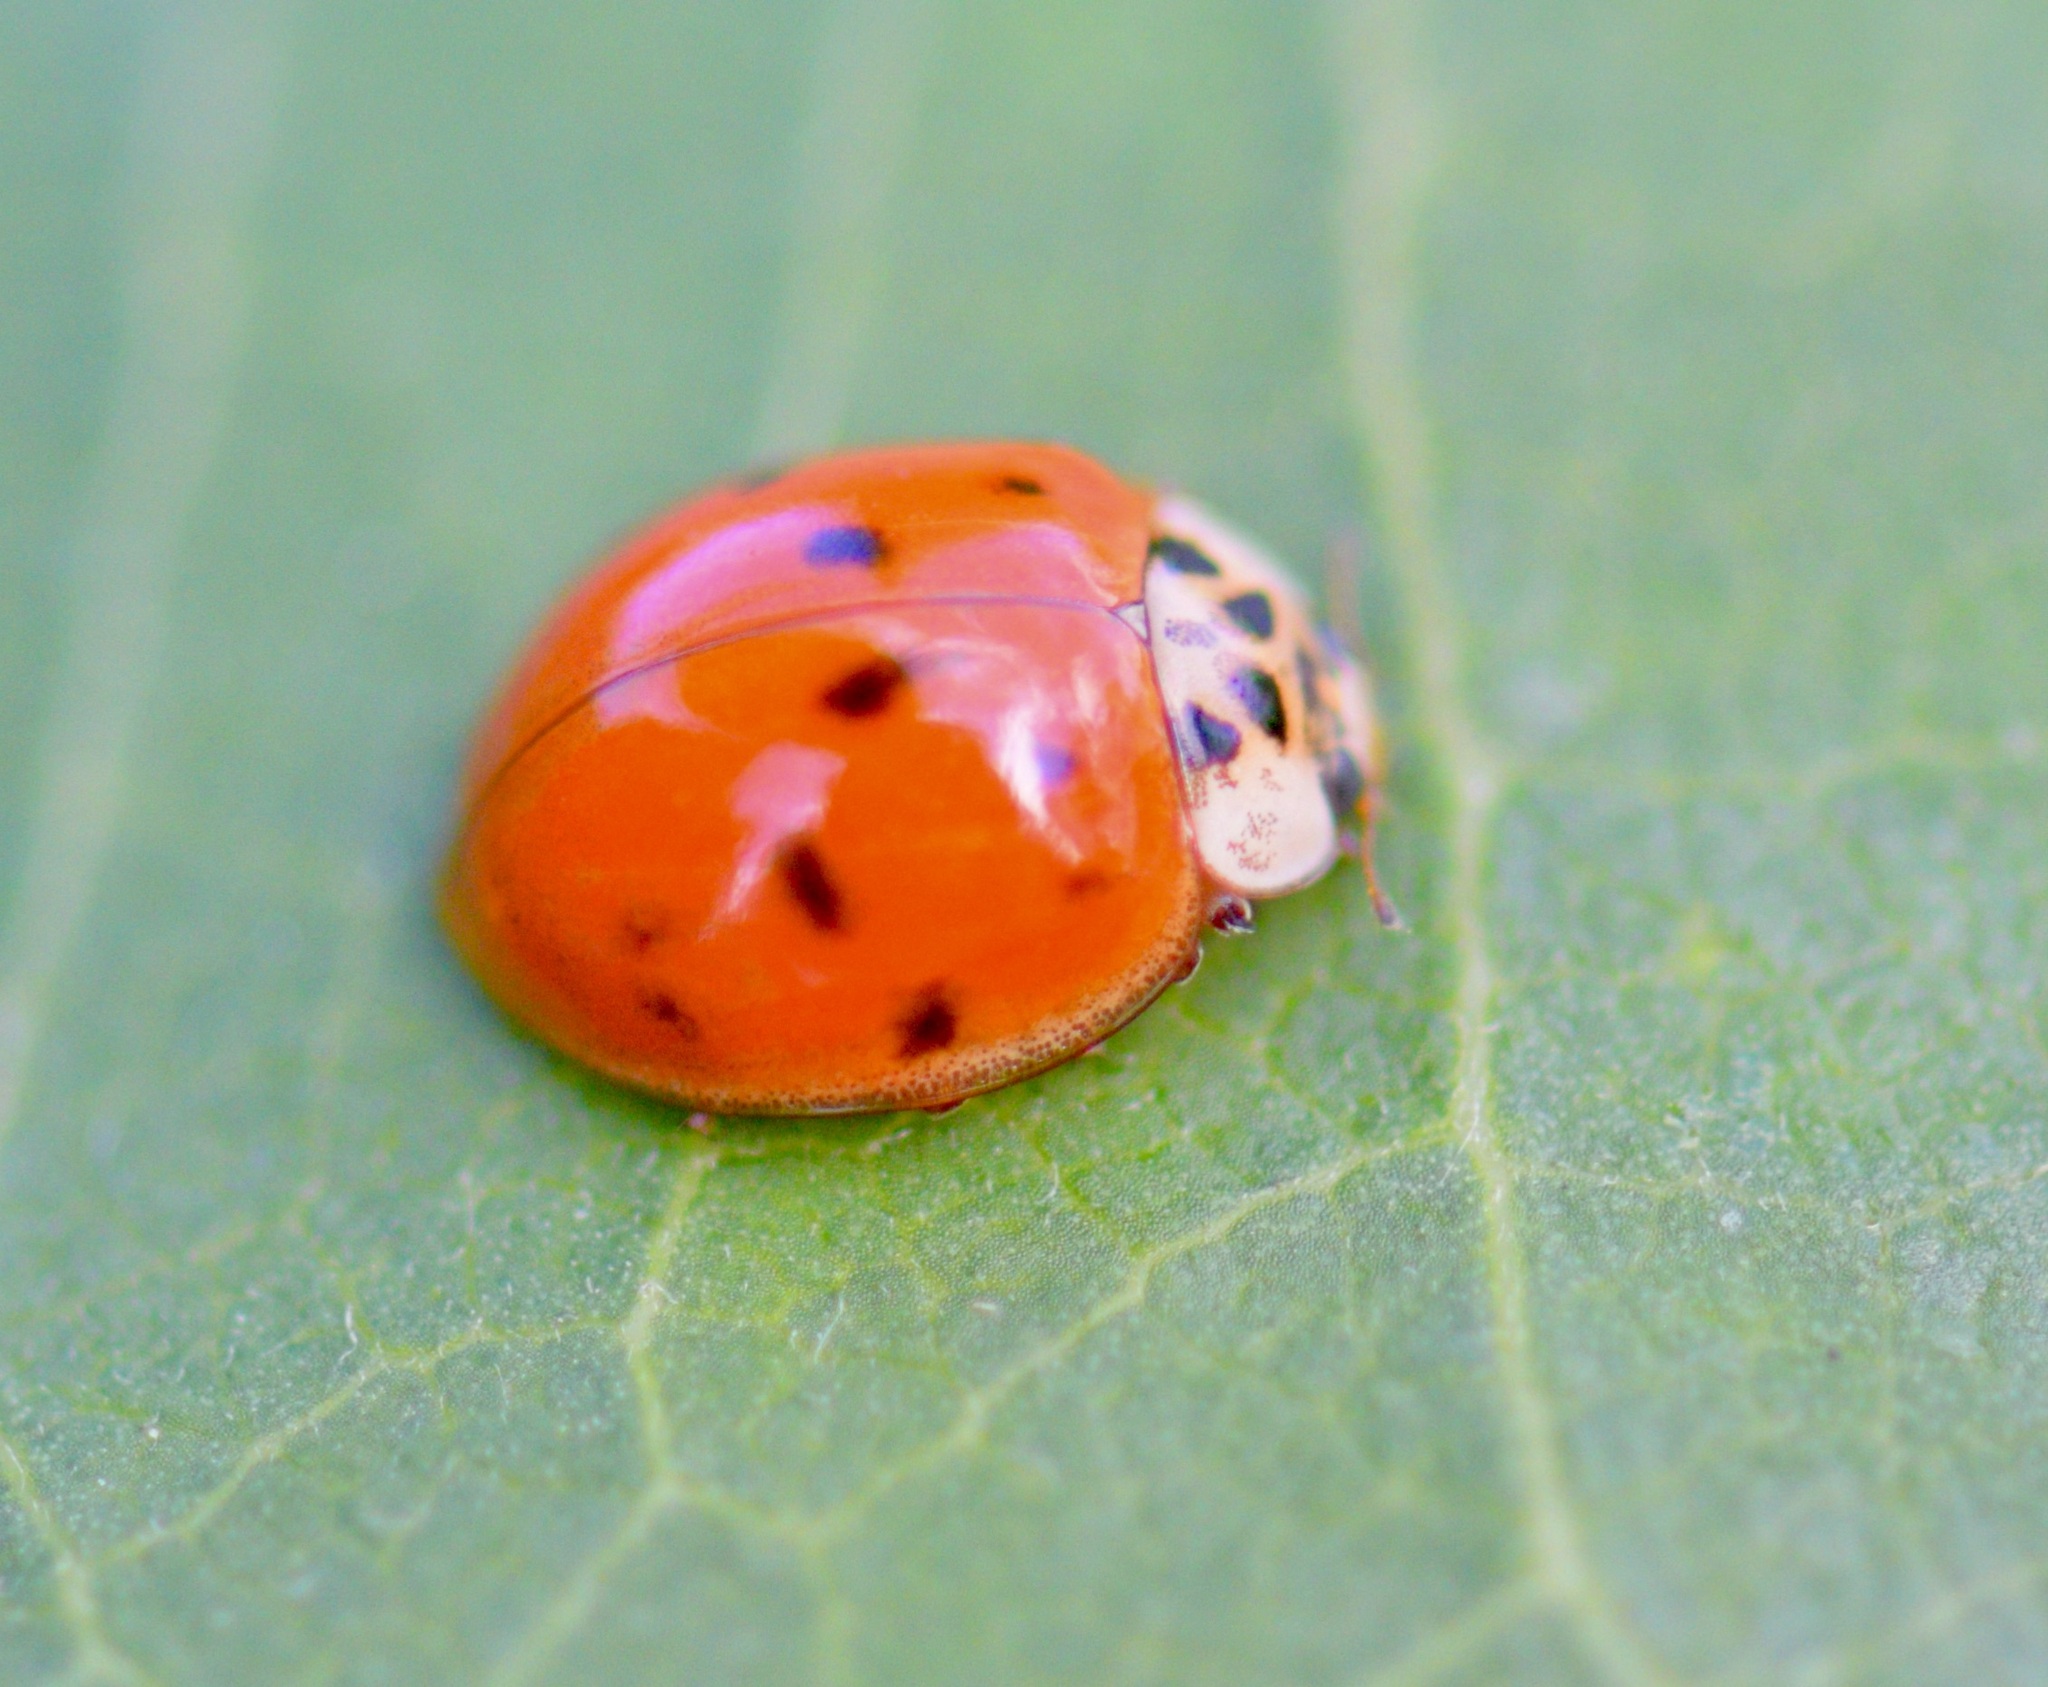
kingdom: Animalia
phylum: Arthropoda
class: Insecta
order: Coleoptera
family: Coccinellidae
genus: Harmonia
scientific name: Harmonia axyridis
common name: Harlequin ladybird
